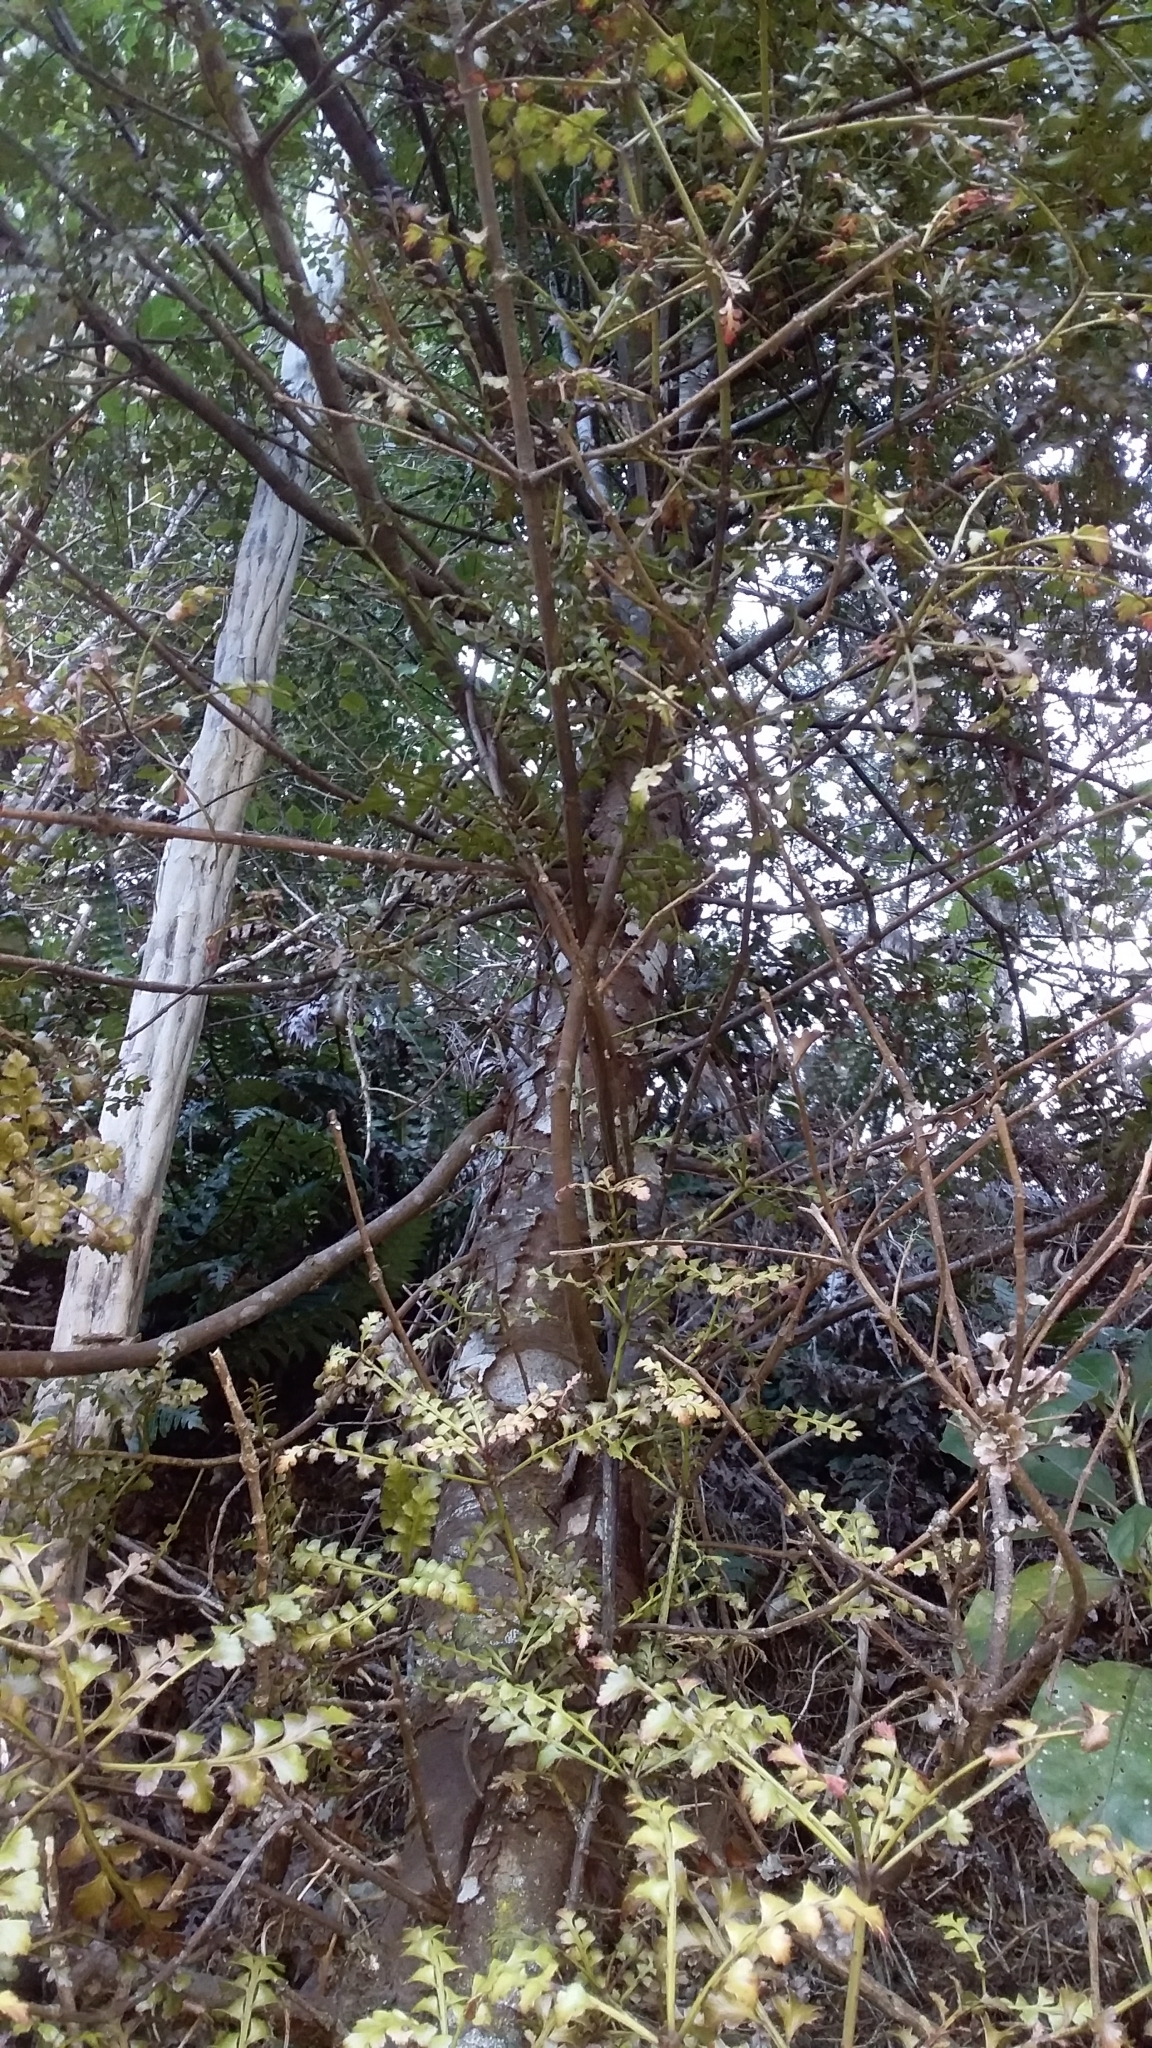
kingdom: Plantae
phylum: Tracheophyta
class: Pinopsida
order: Pinales
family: Phyllocladaceae
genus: Phyllocladus
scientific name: Phyllocladus trichomanoides
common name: Celery pine
